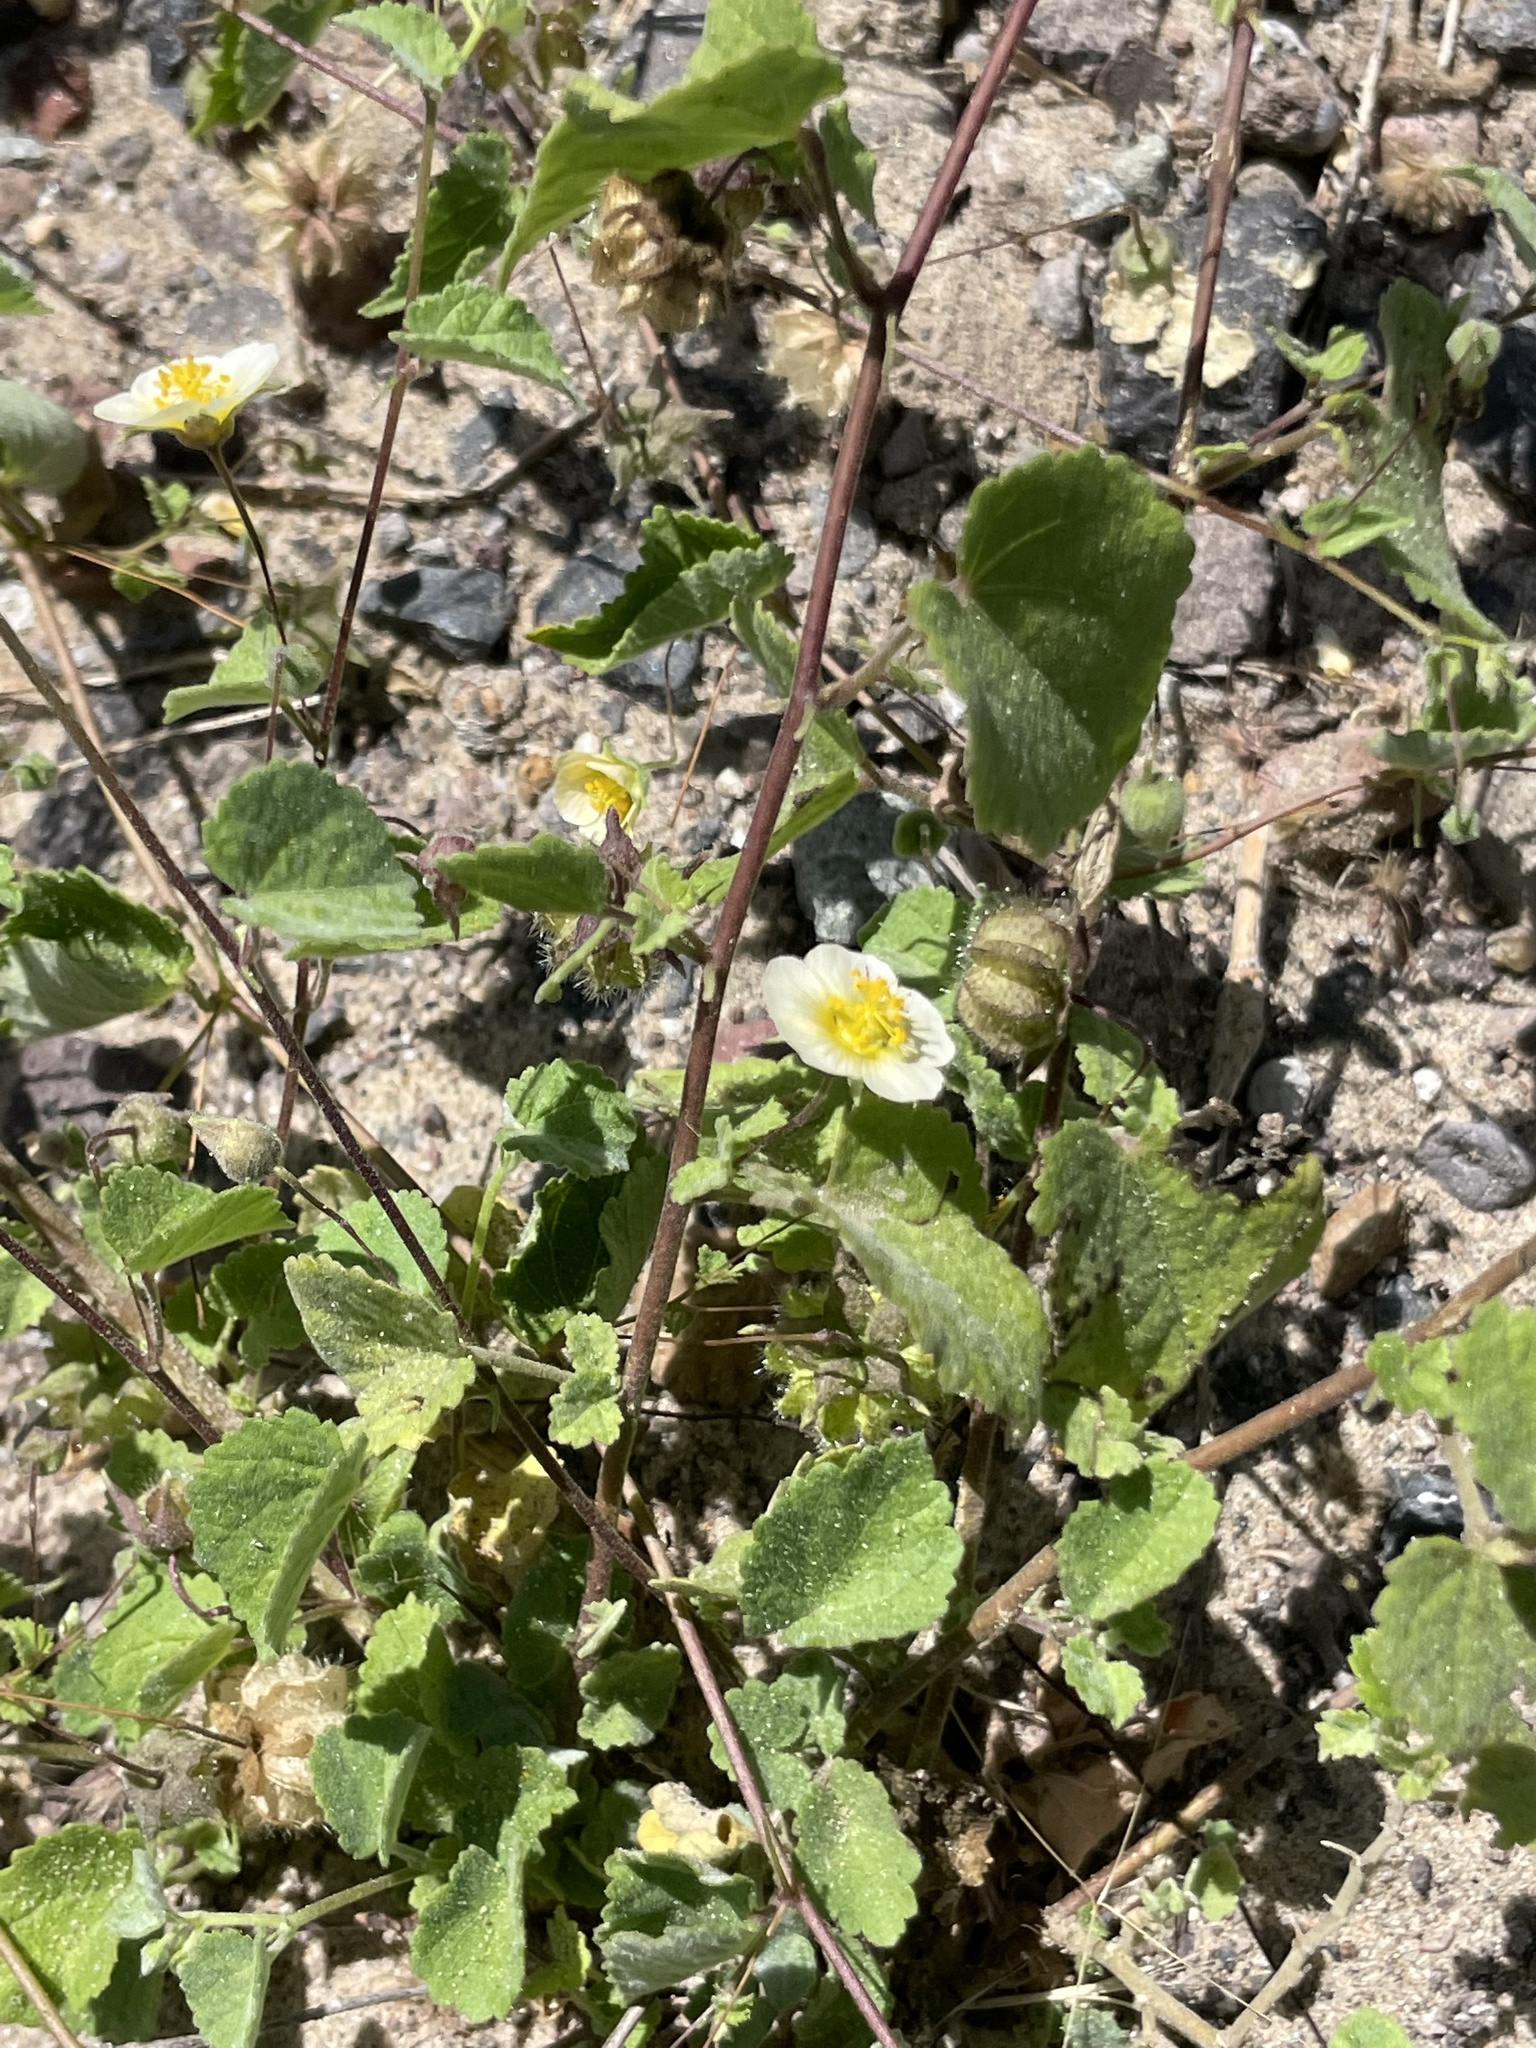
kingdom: Plantae
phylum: Tracheophyta
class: Magnoliopsida
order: Malvales
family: Malvaceae
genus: Herissantia
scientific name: Herissantia crispa
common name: Bladdermallow
